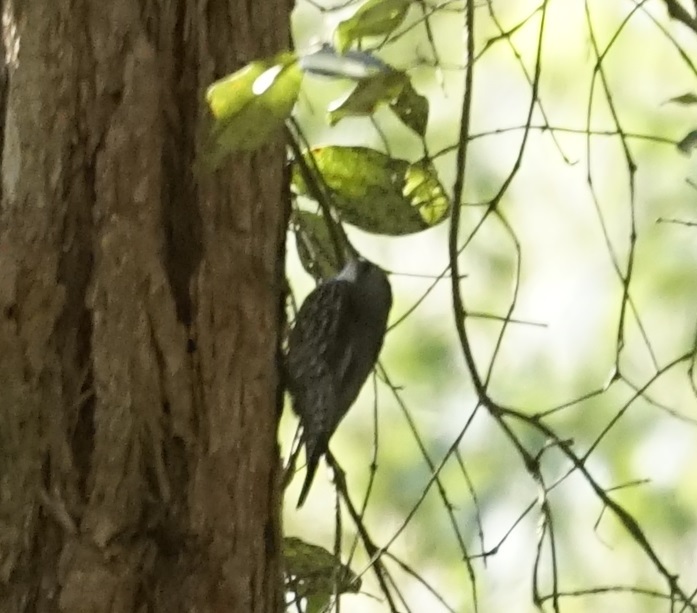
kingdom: Animalia
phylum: Chordata
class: Aves
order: Passeriformes
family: Climacteridae
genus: Cormobates
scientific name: Cormobates leucophaea
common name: White-throated treecreeper
